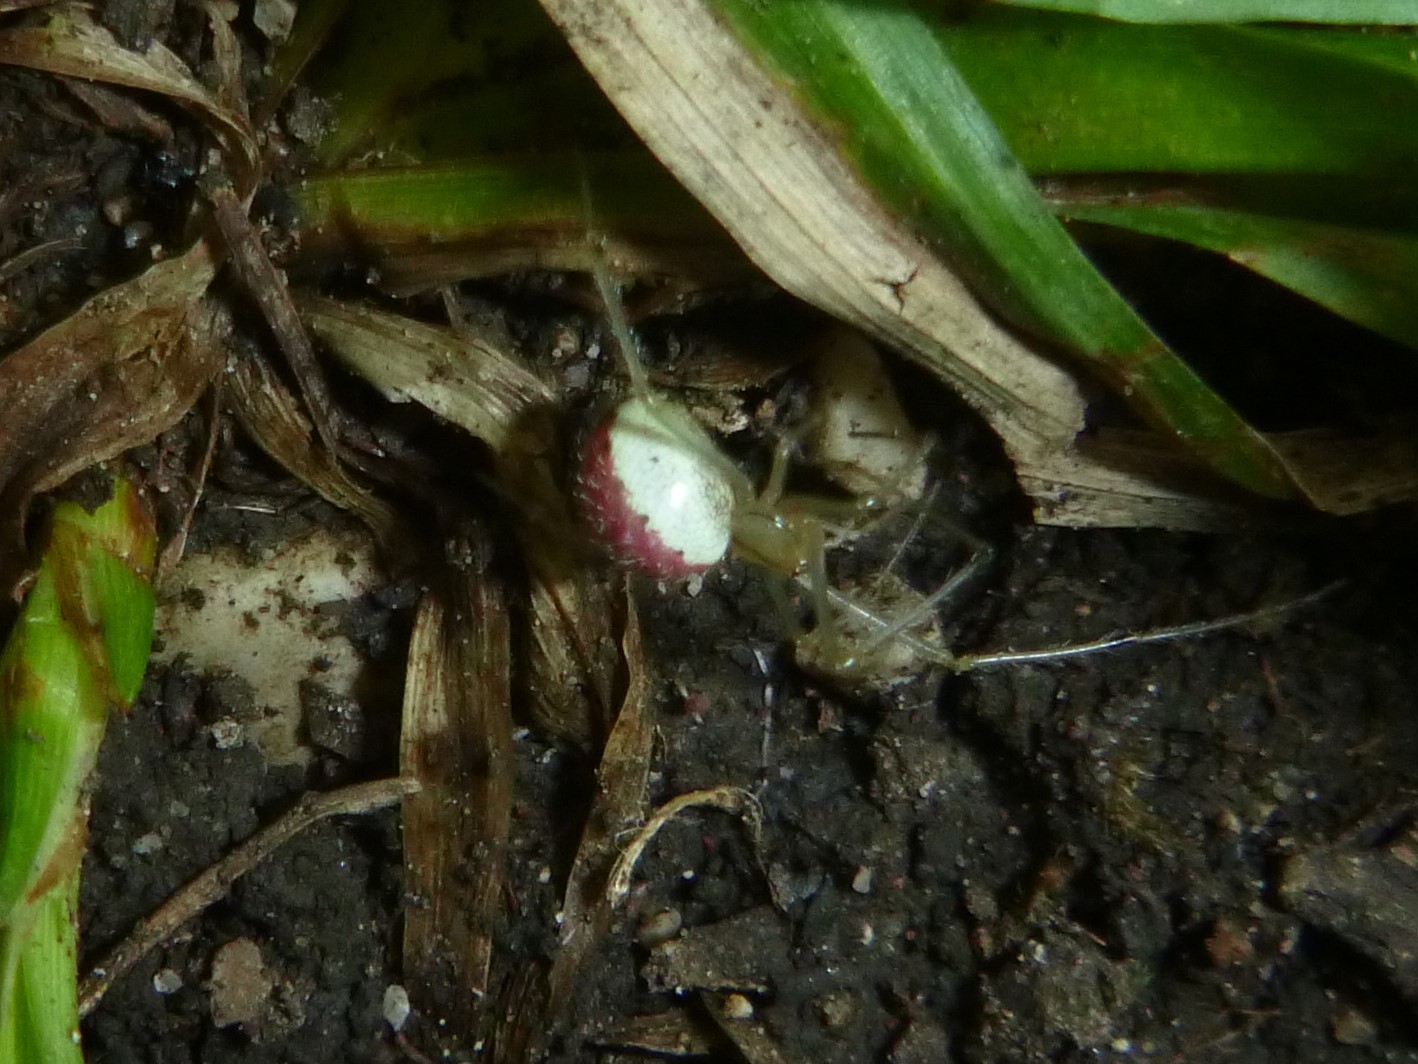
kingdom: Animalia
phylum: Arthropoda
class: Arachnida
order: Araneae
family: Theridiidae
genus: Enoplognatha
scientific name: Enoplognatha ovata
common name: Common candy-striped spider
